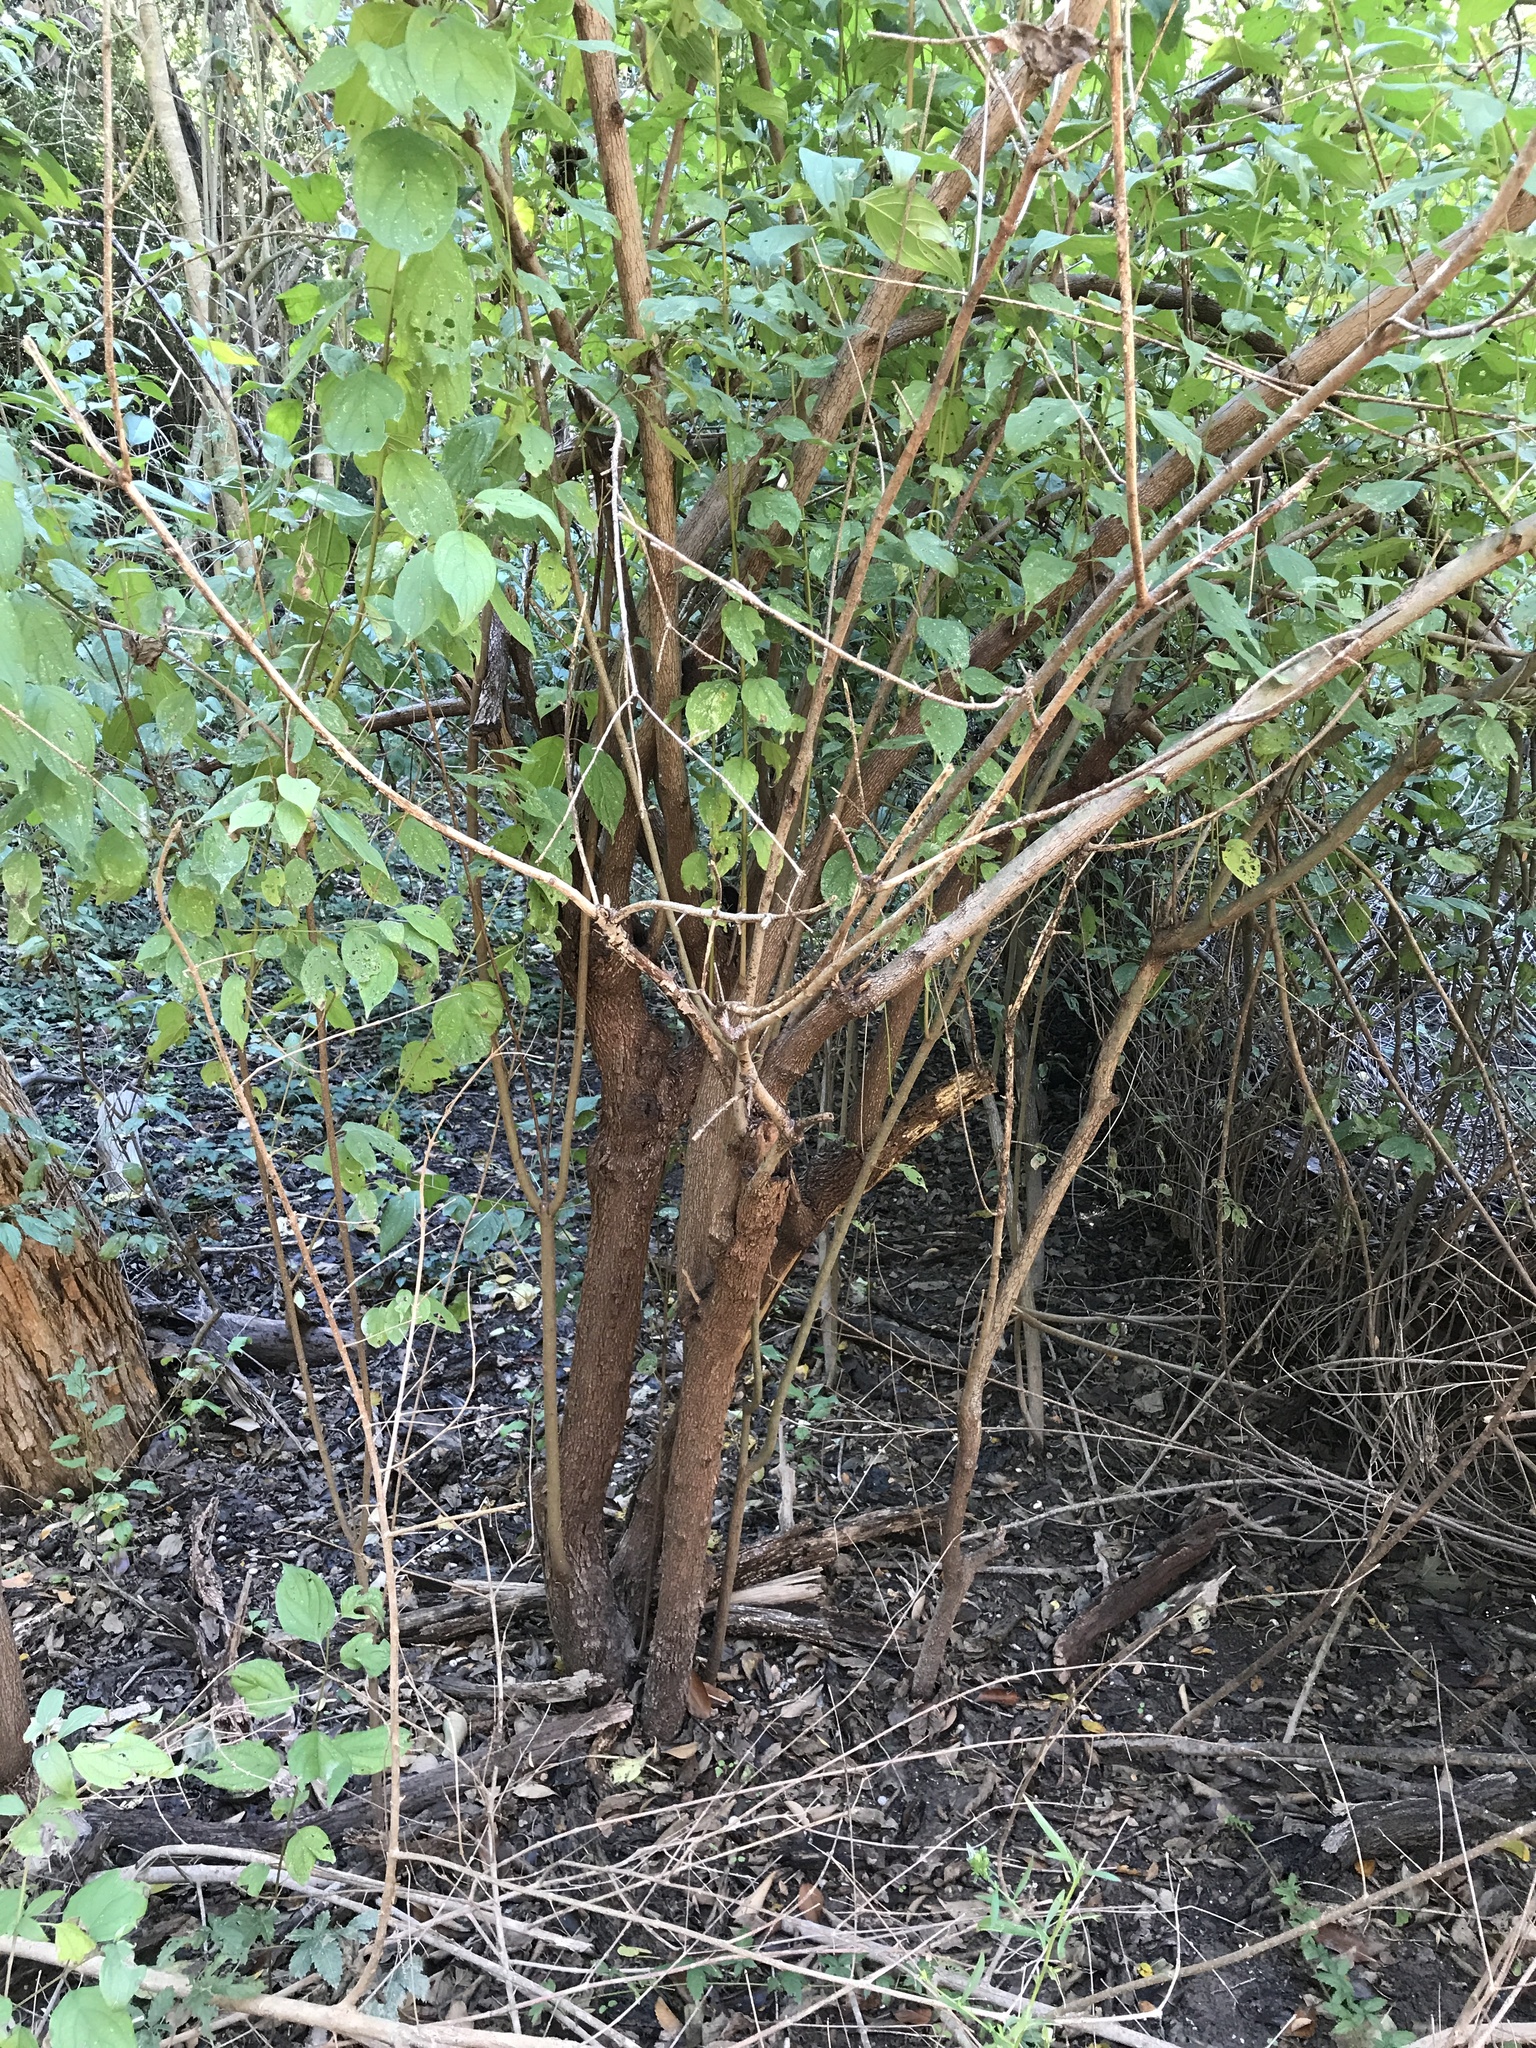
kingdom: Plantae
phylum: Tracheophyta
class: Magnoliopsida
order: Cornales
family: Cornaceae
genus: Cornus
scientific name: Cornus drummondii
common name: Rough-leaf dogwood
